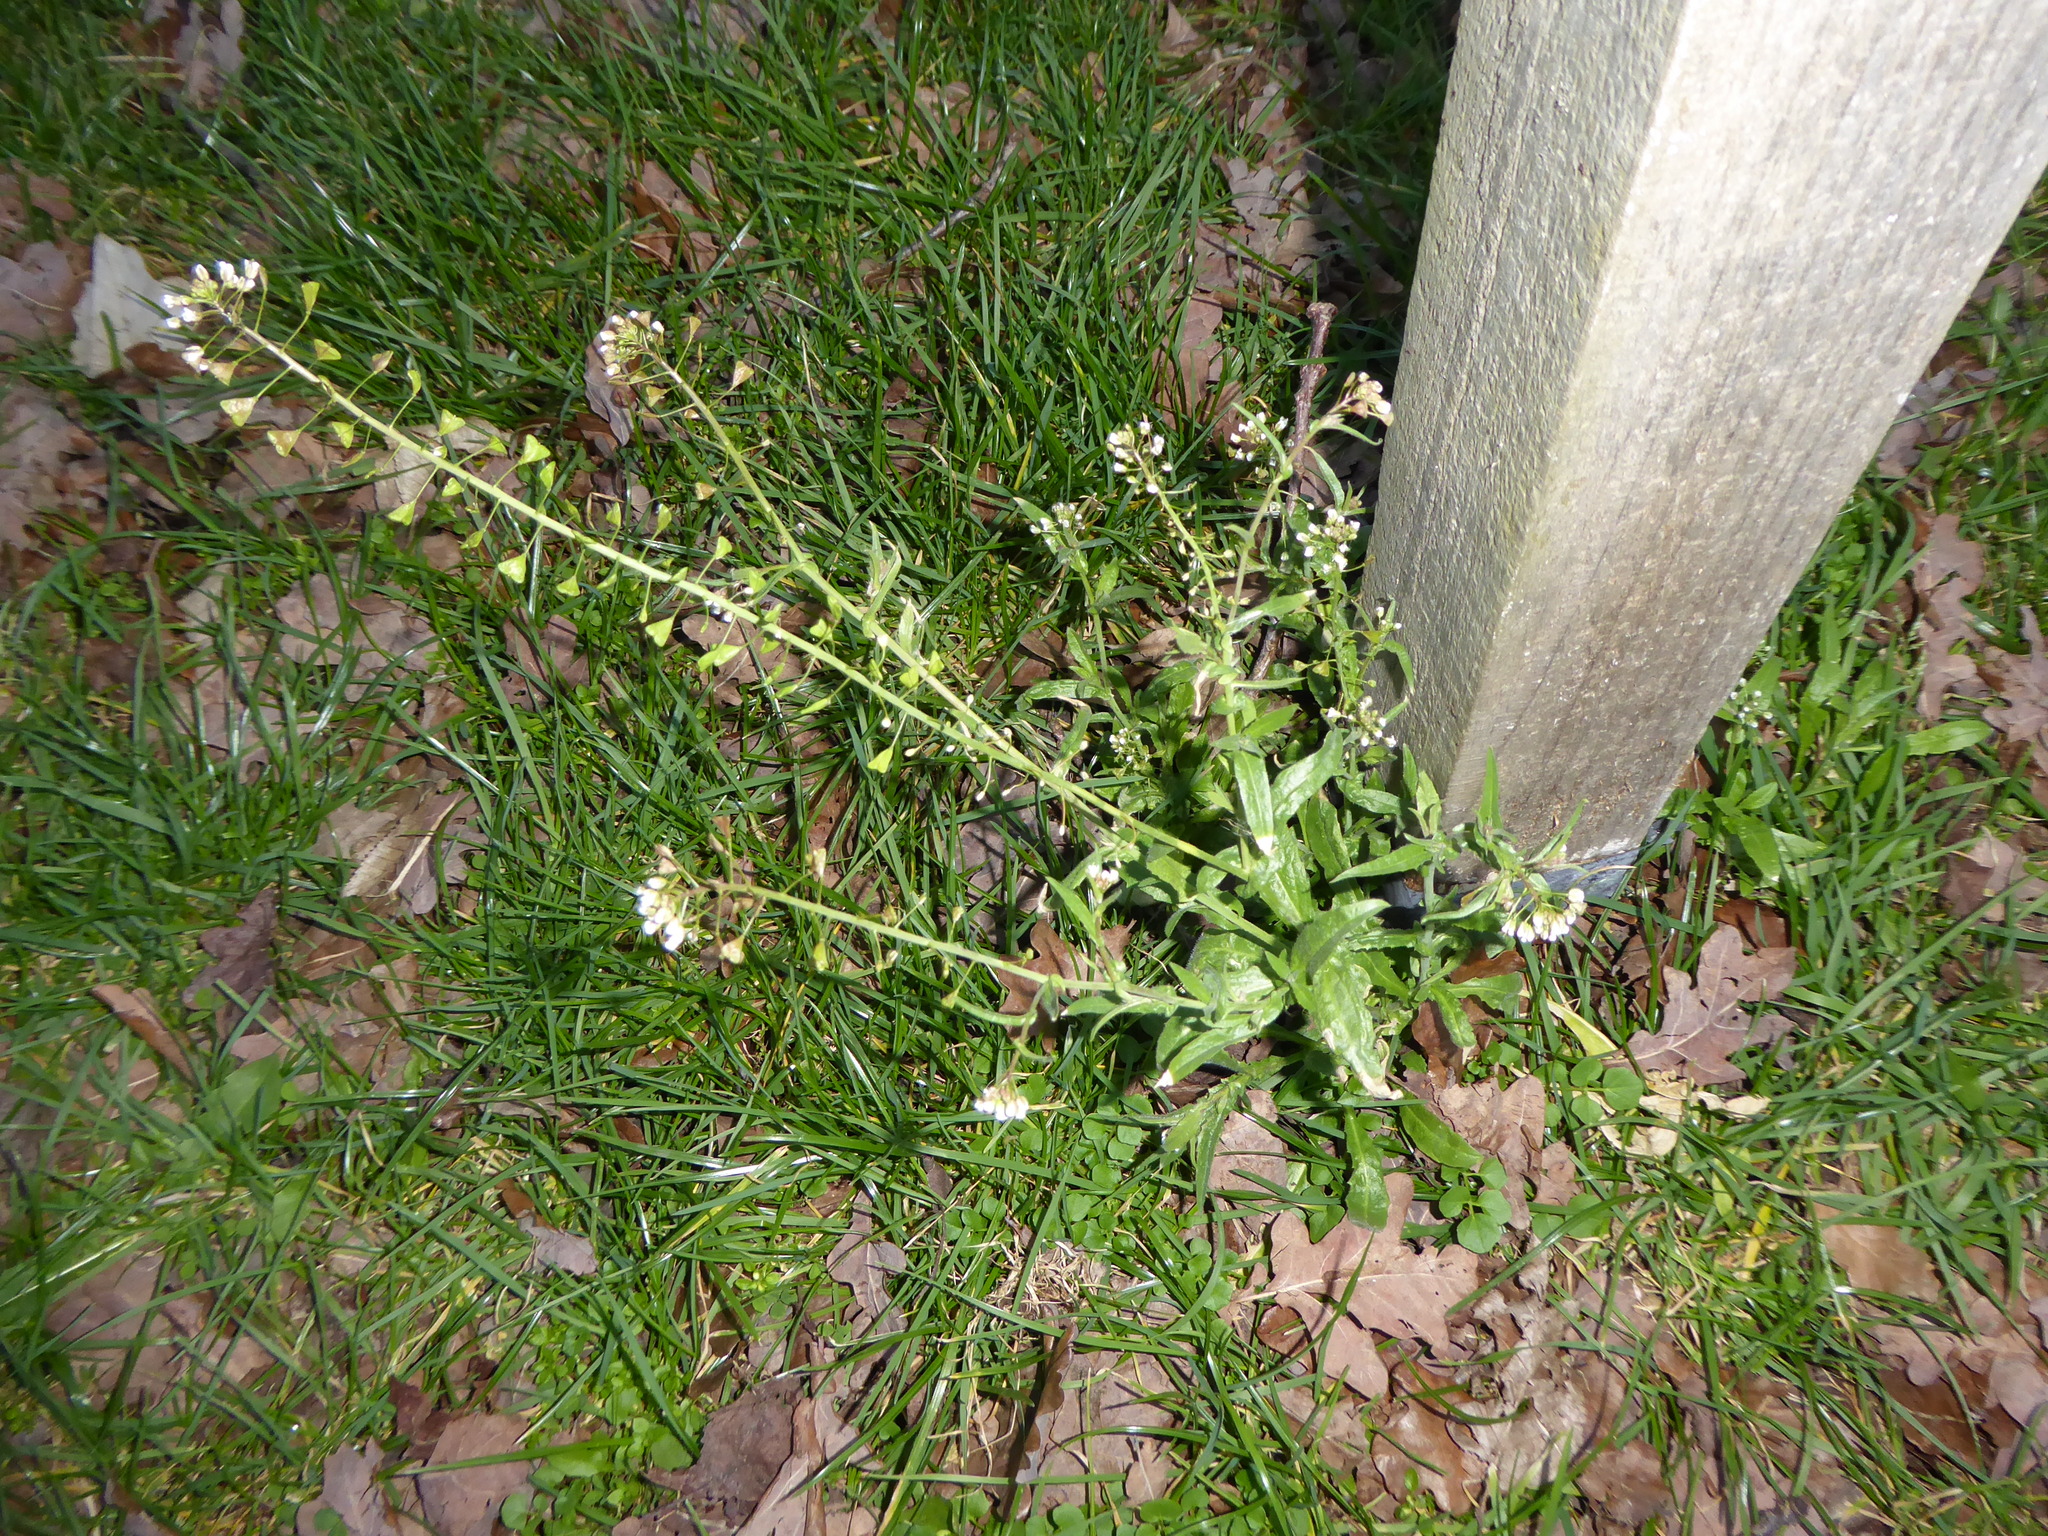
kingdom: Plantae
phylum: Tracheophyta
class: Magnoliopsida
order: Brassicales
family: Brassicaceae
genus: Capsella
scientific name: Capsella bursa-pastoris
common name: Shepherd's purse
